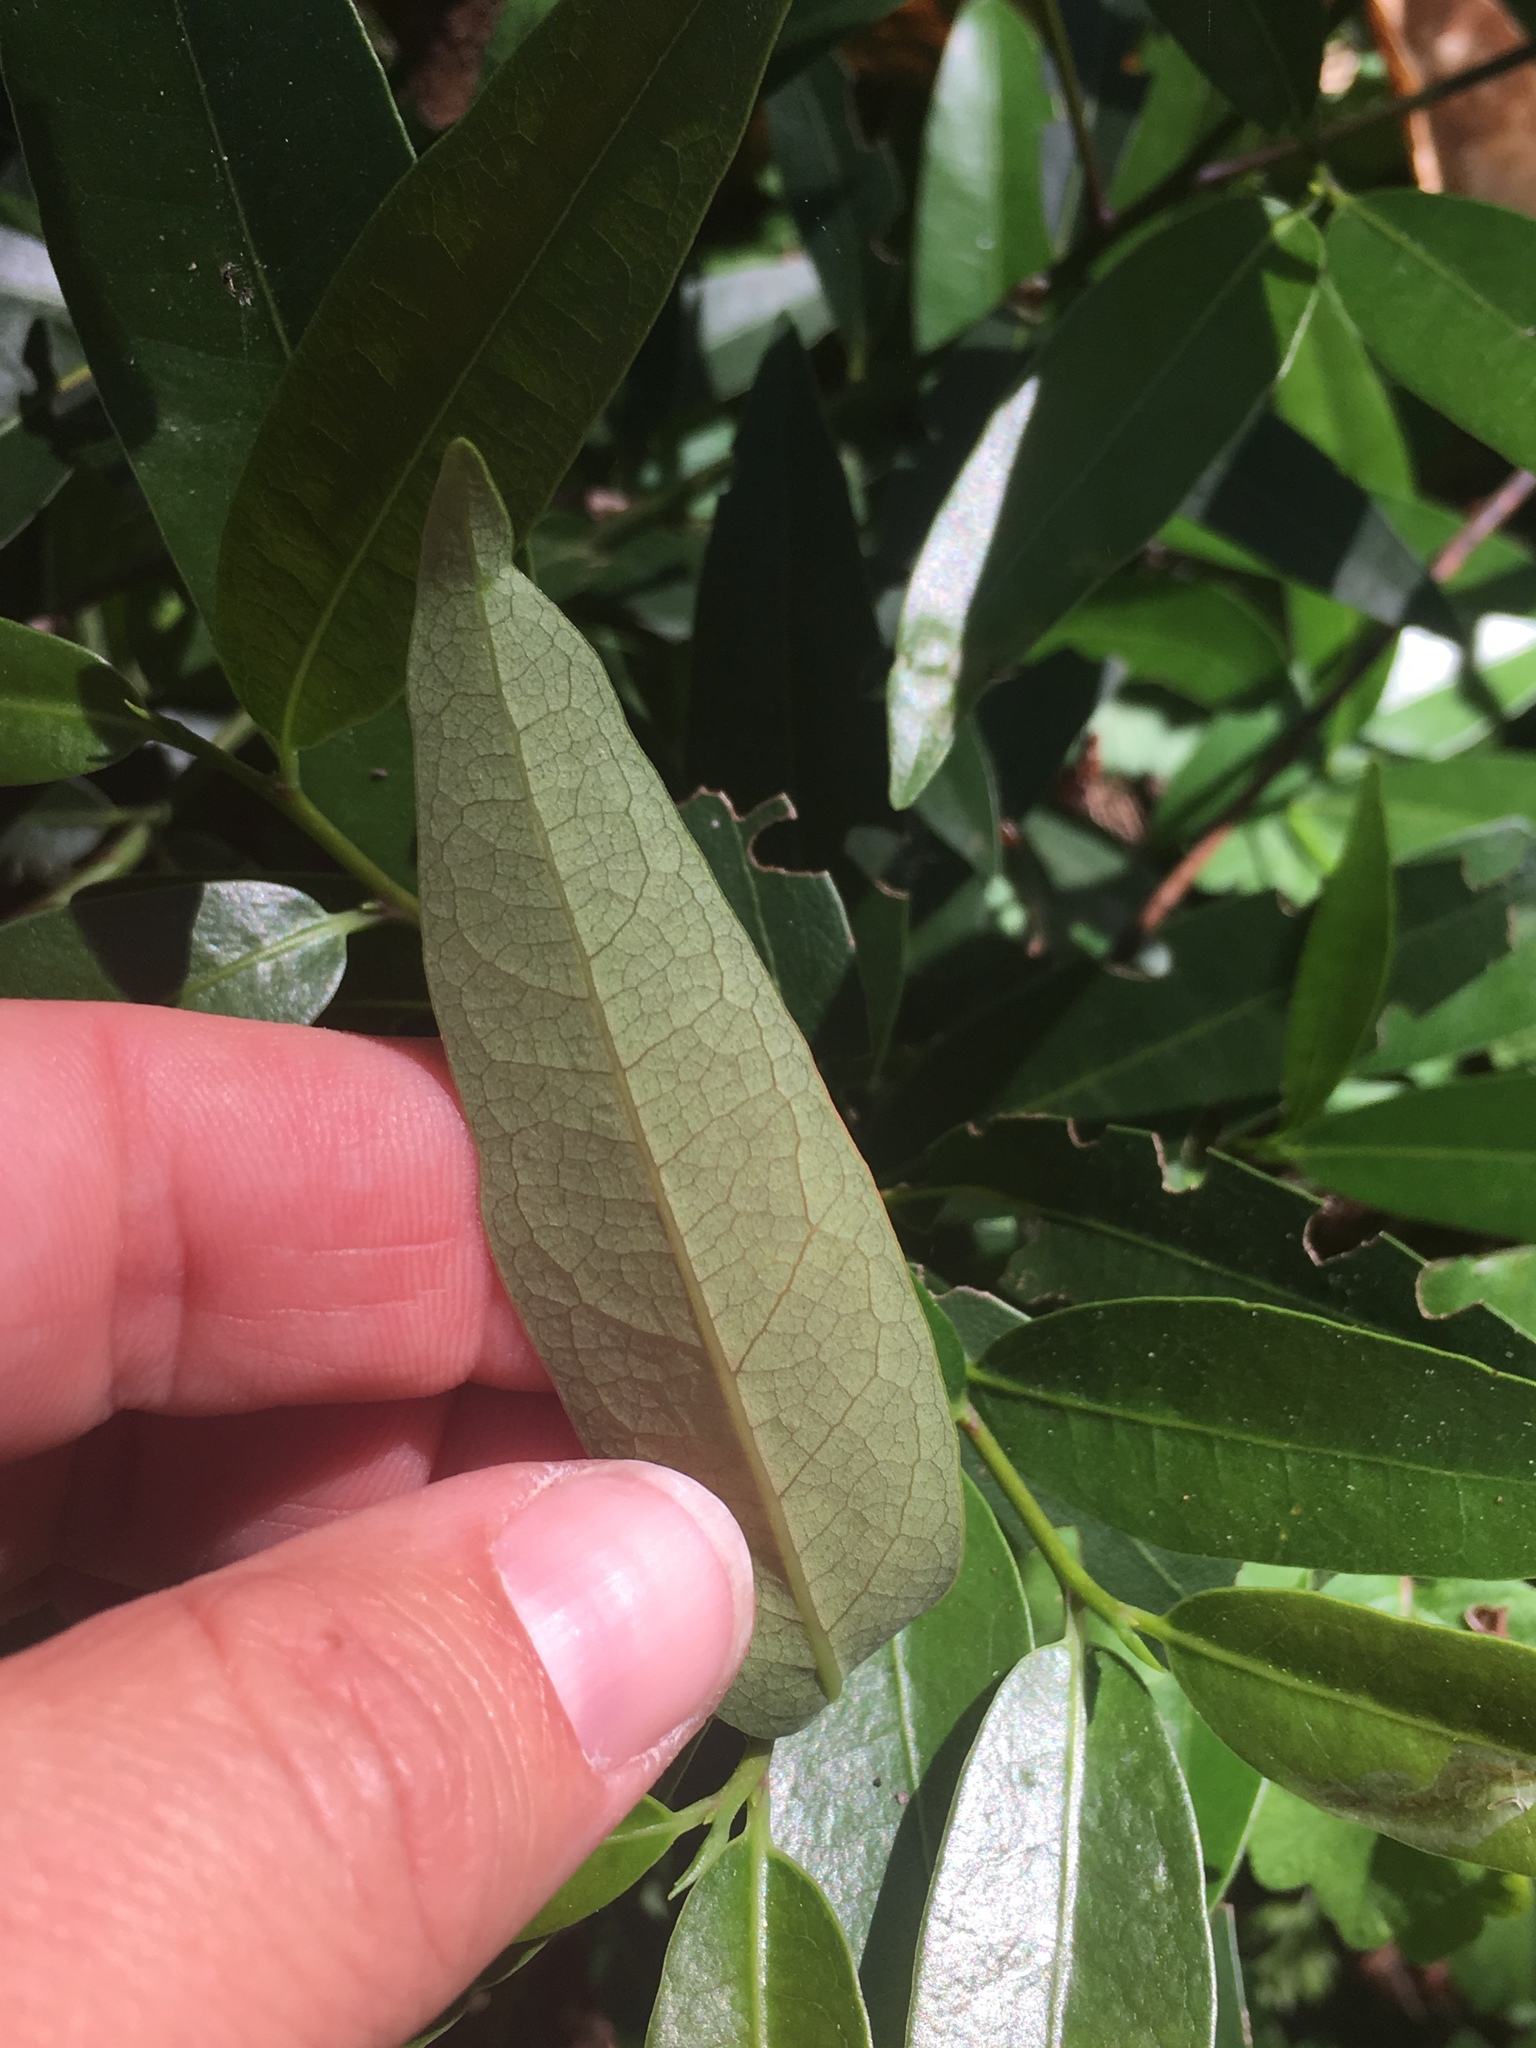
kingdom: Plantae
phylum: Tracheophyta
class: Magnoliopsida
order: Laurales
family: Lauraceae
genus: Umbellularia
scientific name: Umbellularia californica
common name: California bay
